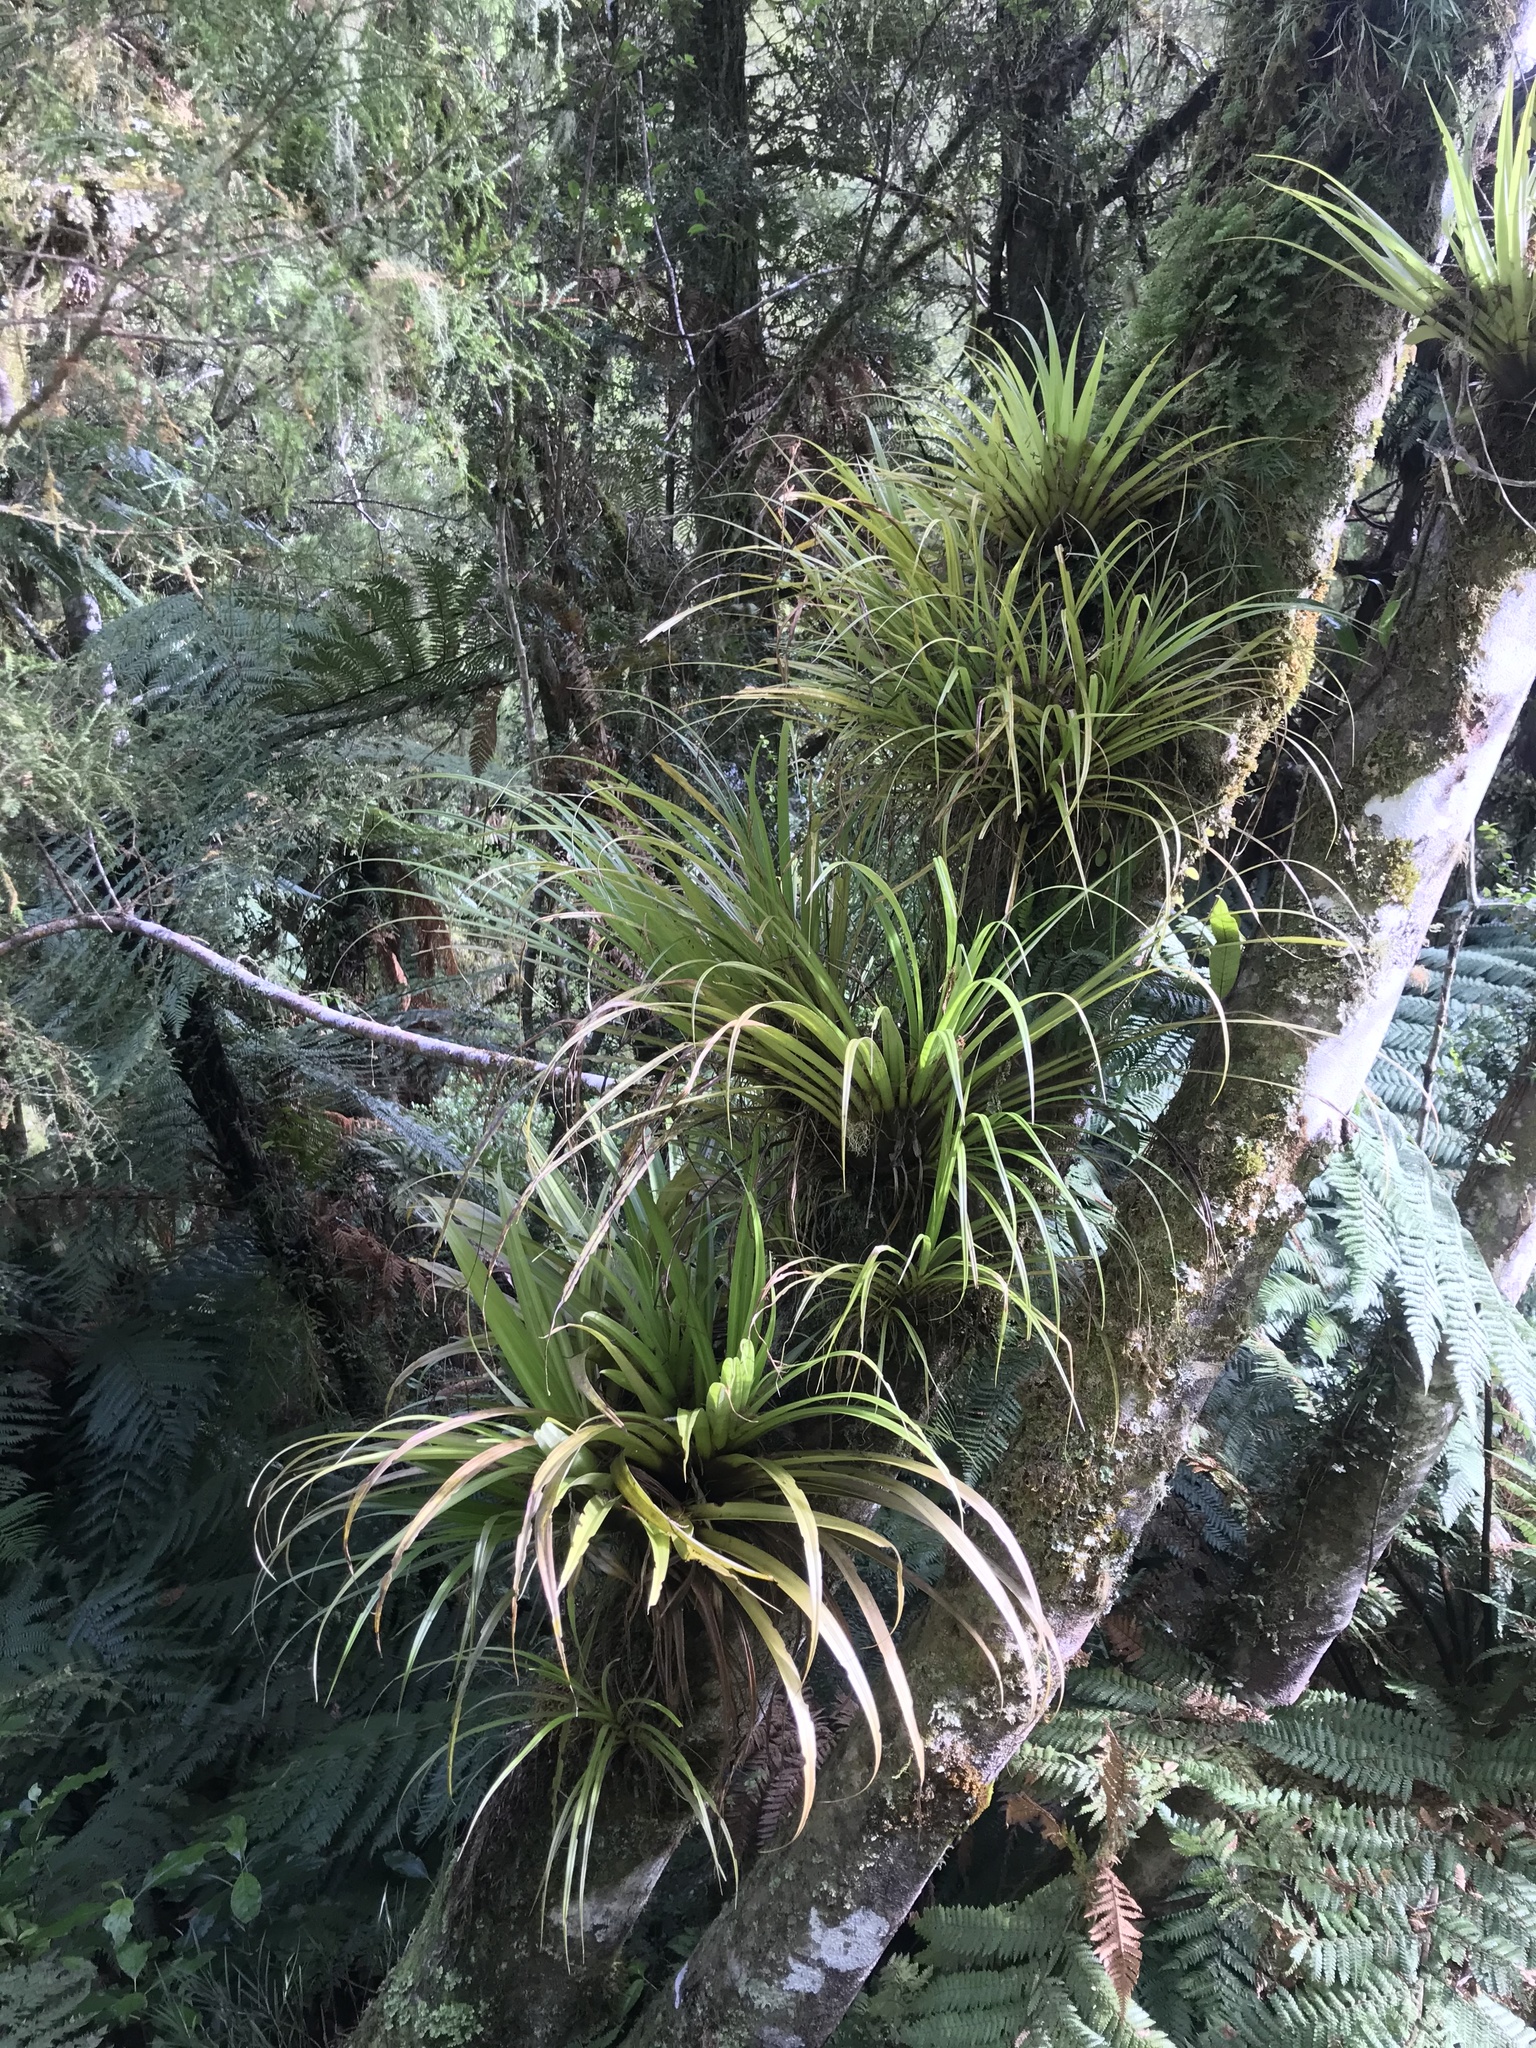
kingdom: Plantae
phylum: Tracheophyta
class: Liliopsida
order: Asparagales
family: Asteliaceae
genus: Astelia
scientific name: Astelia microsperma
